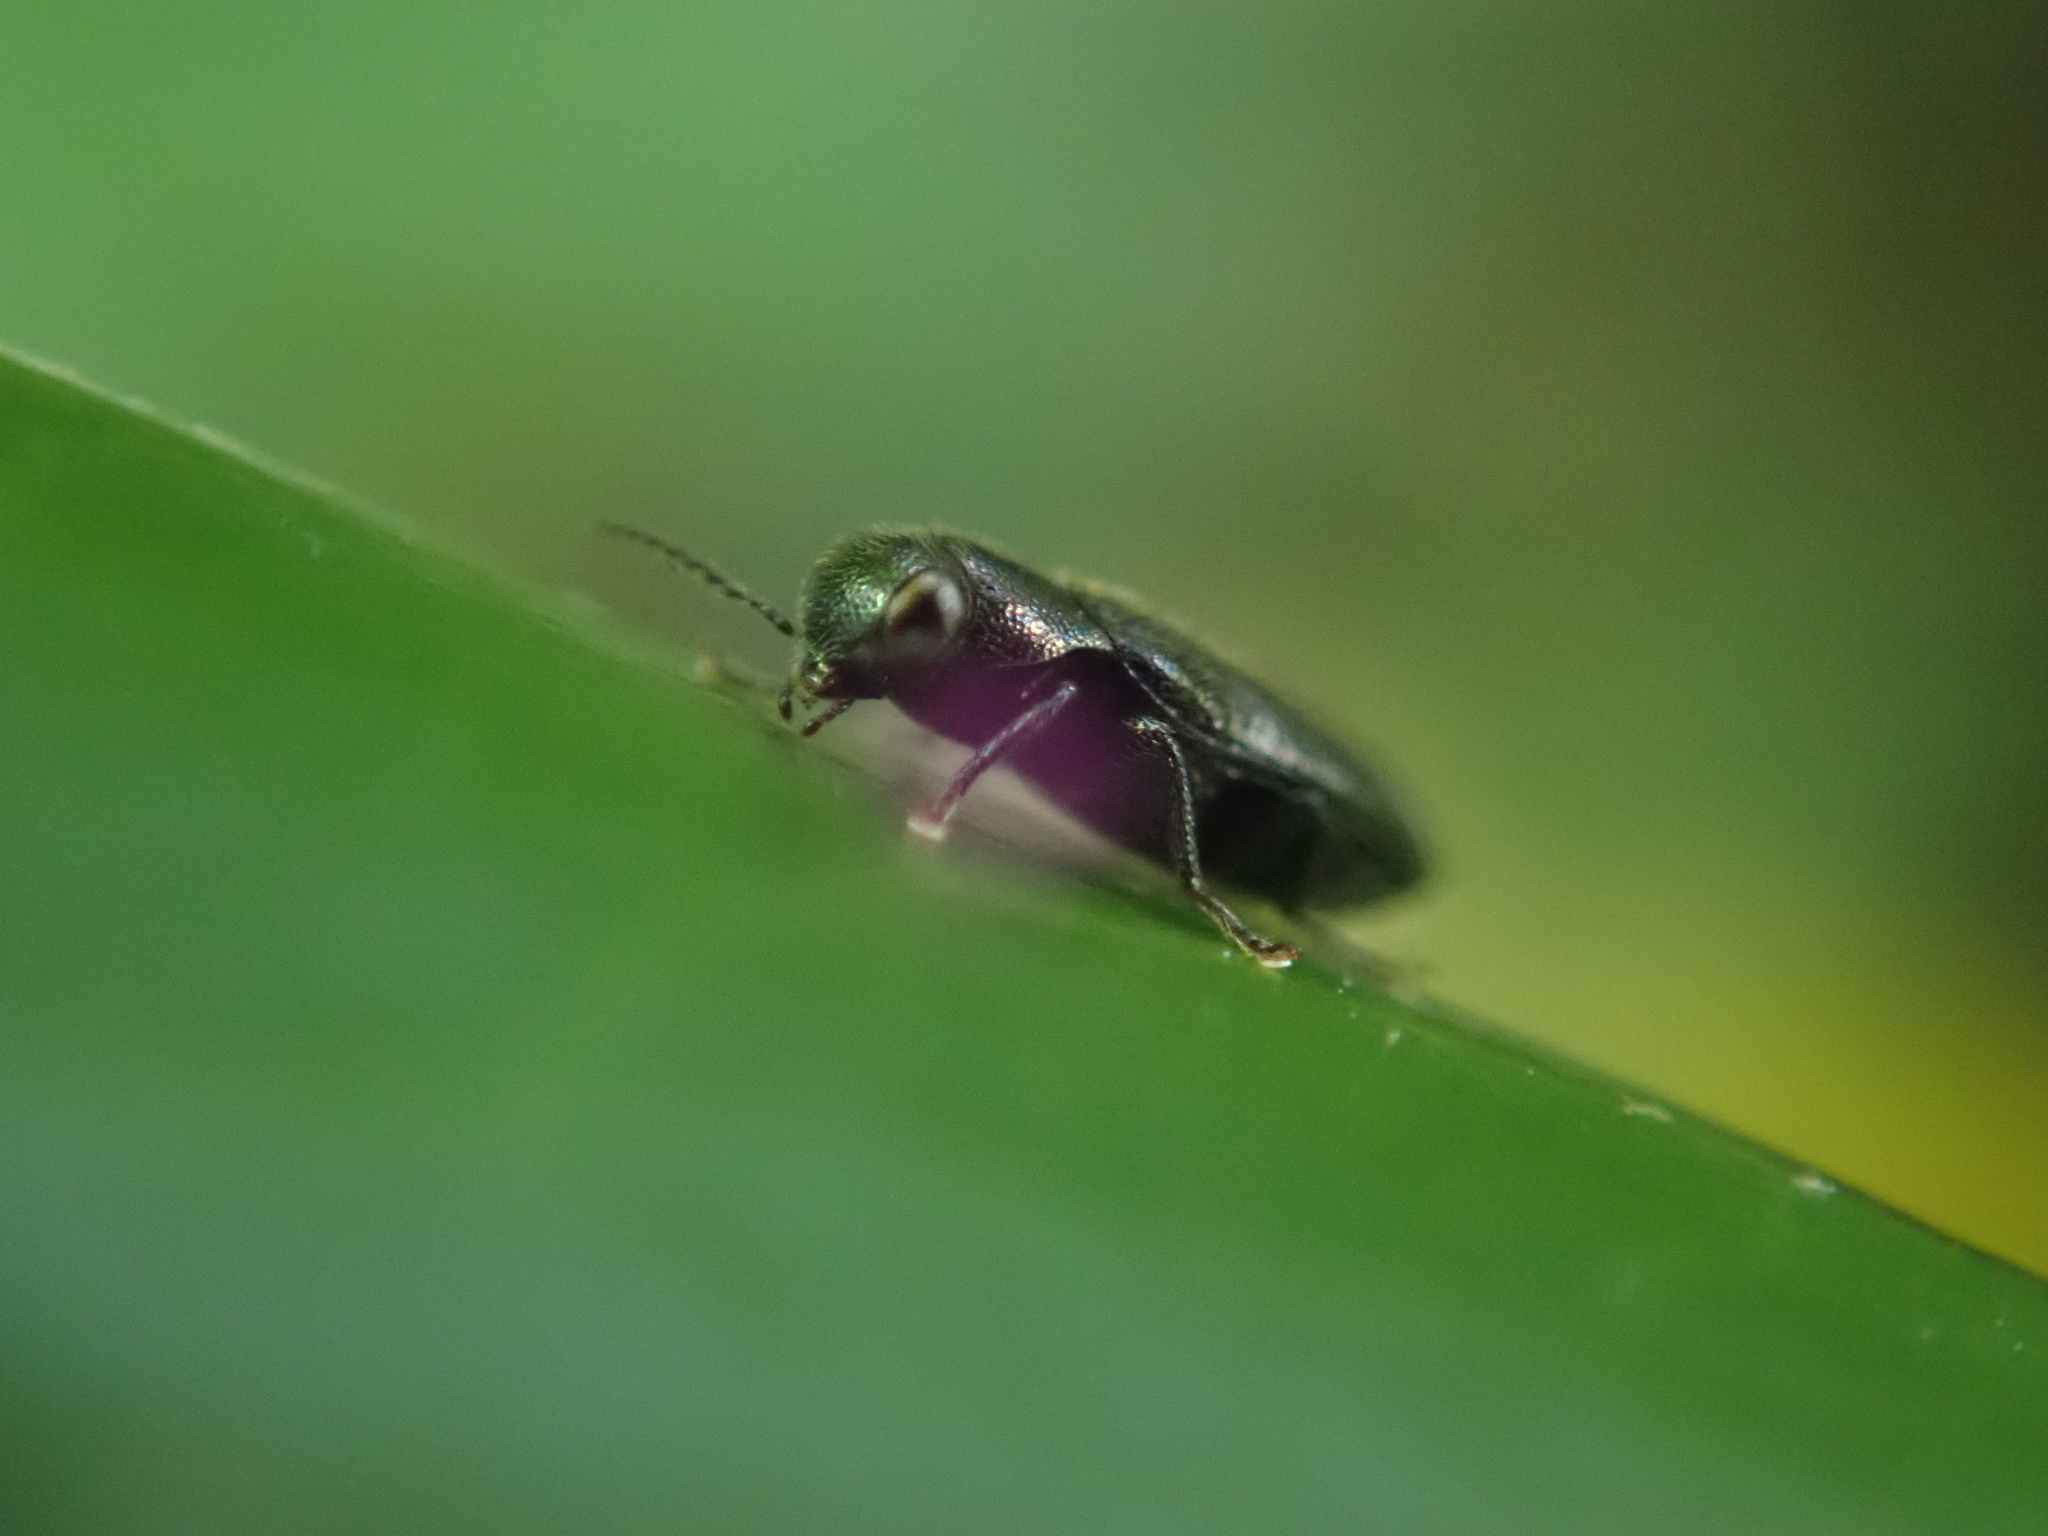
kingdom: Animalia
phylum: Arthropoda
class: Insecta
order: Coleoptera
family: Buprestidae
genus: Maoraxia
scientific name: Maoraxia eremita
